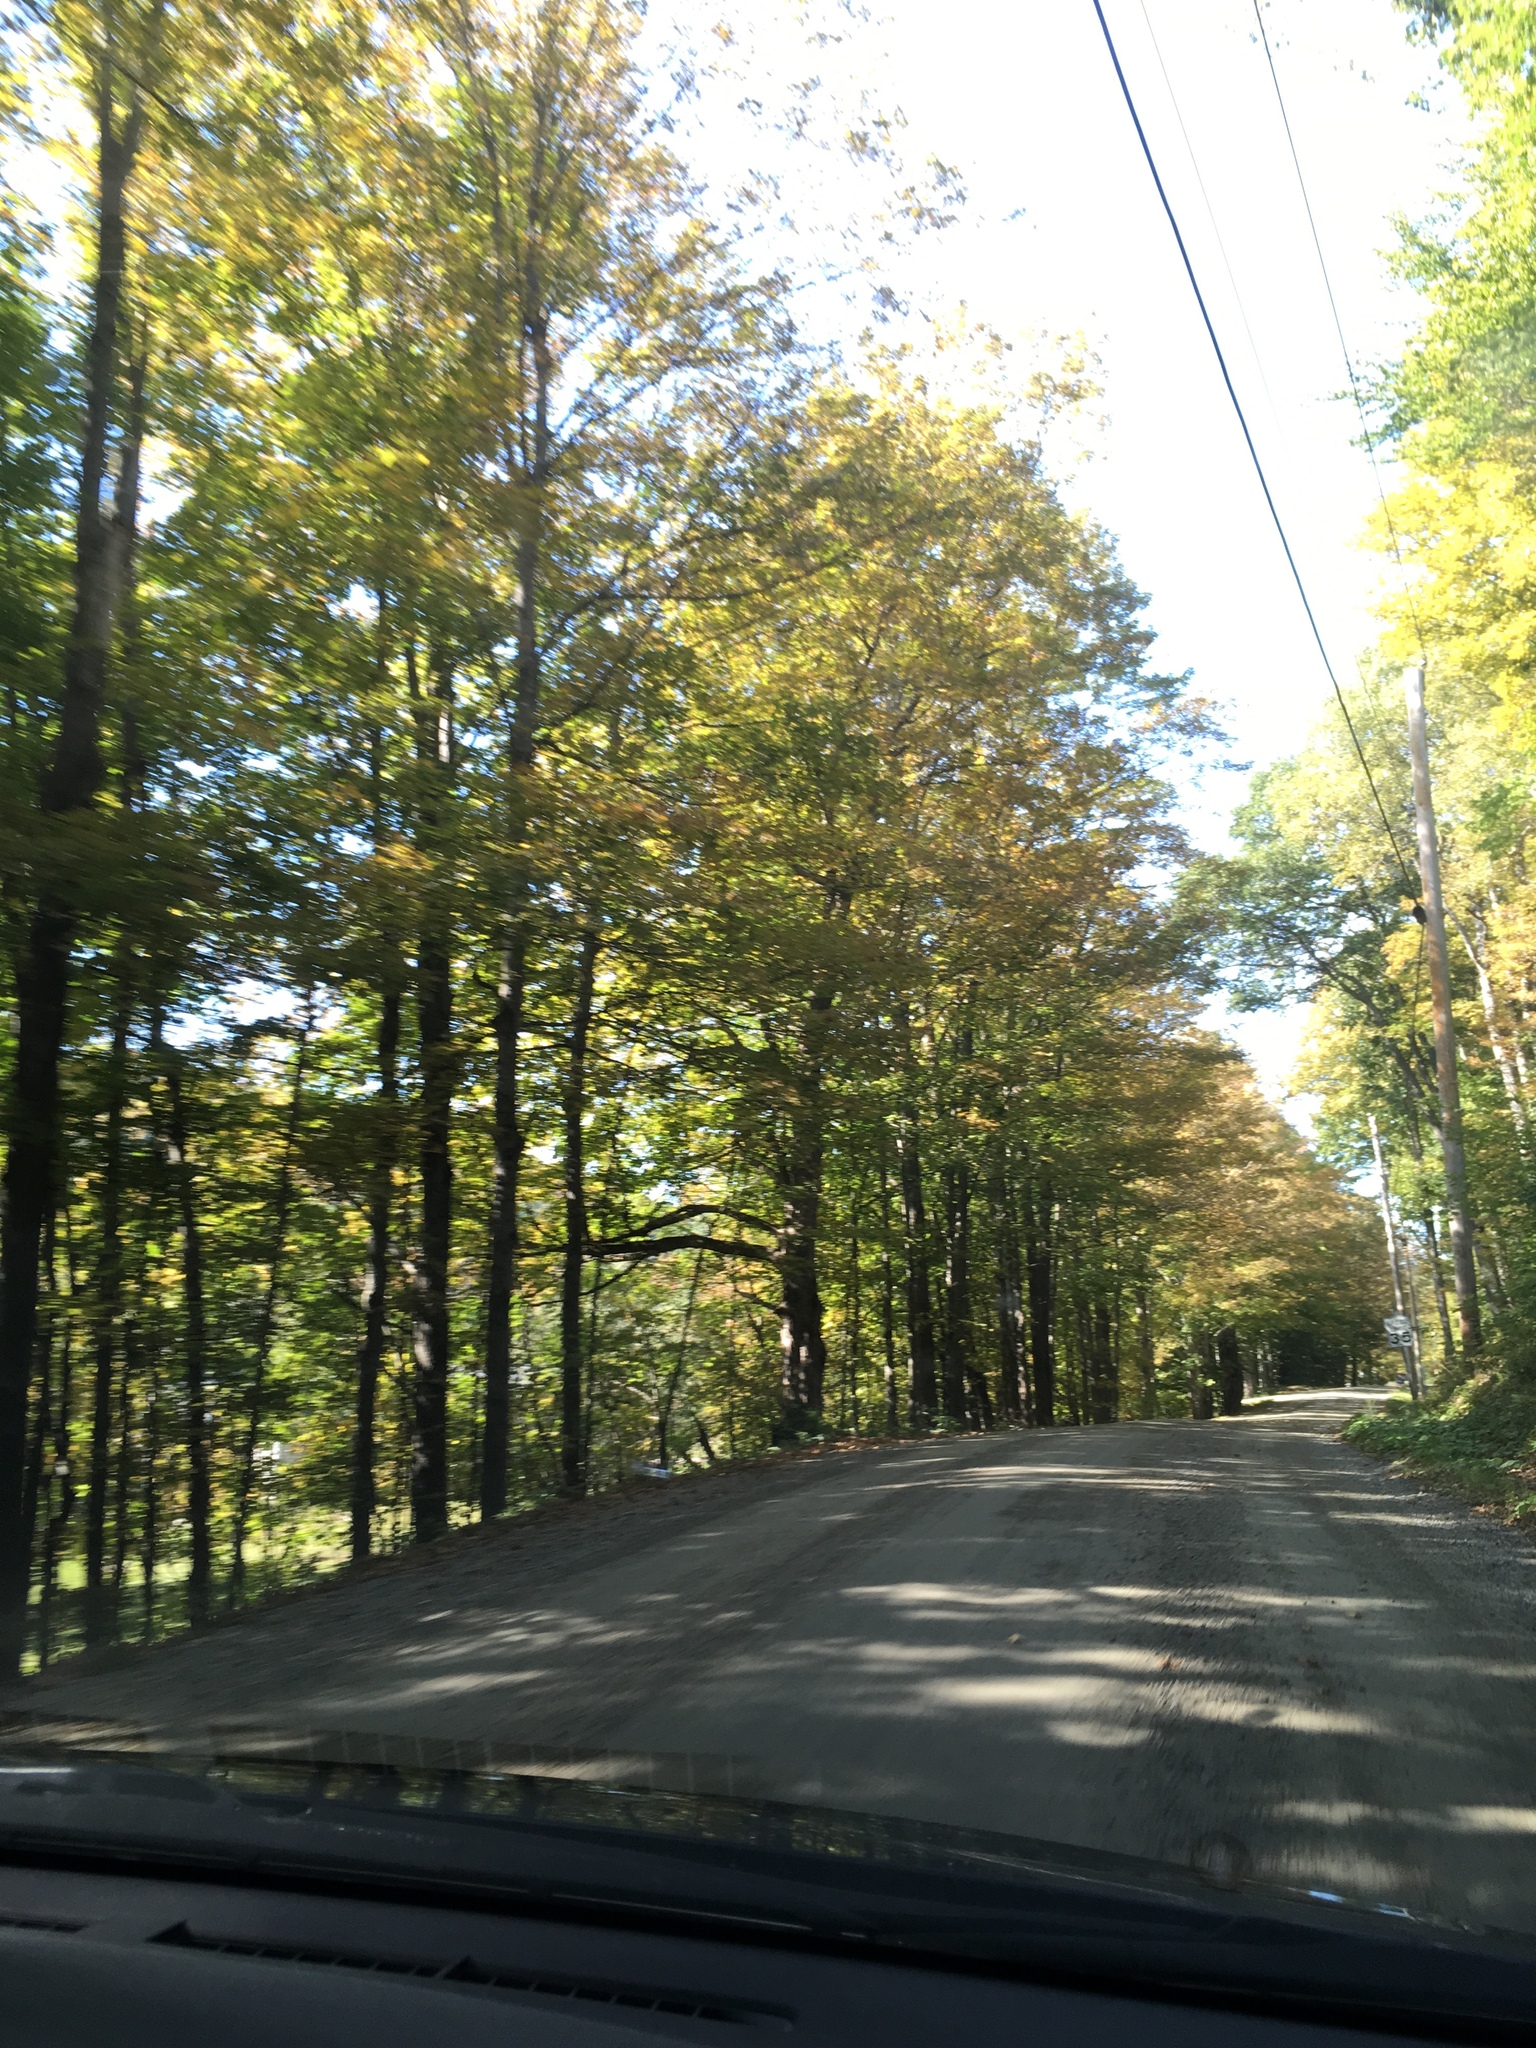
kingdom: Plantae
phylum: Tracheophyta
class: Magnoliopsida
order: Sapindales
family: Sapindaceae
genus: Acer
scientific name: Acer saccharum
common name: Sugar maple
